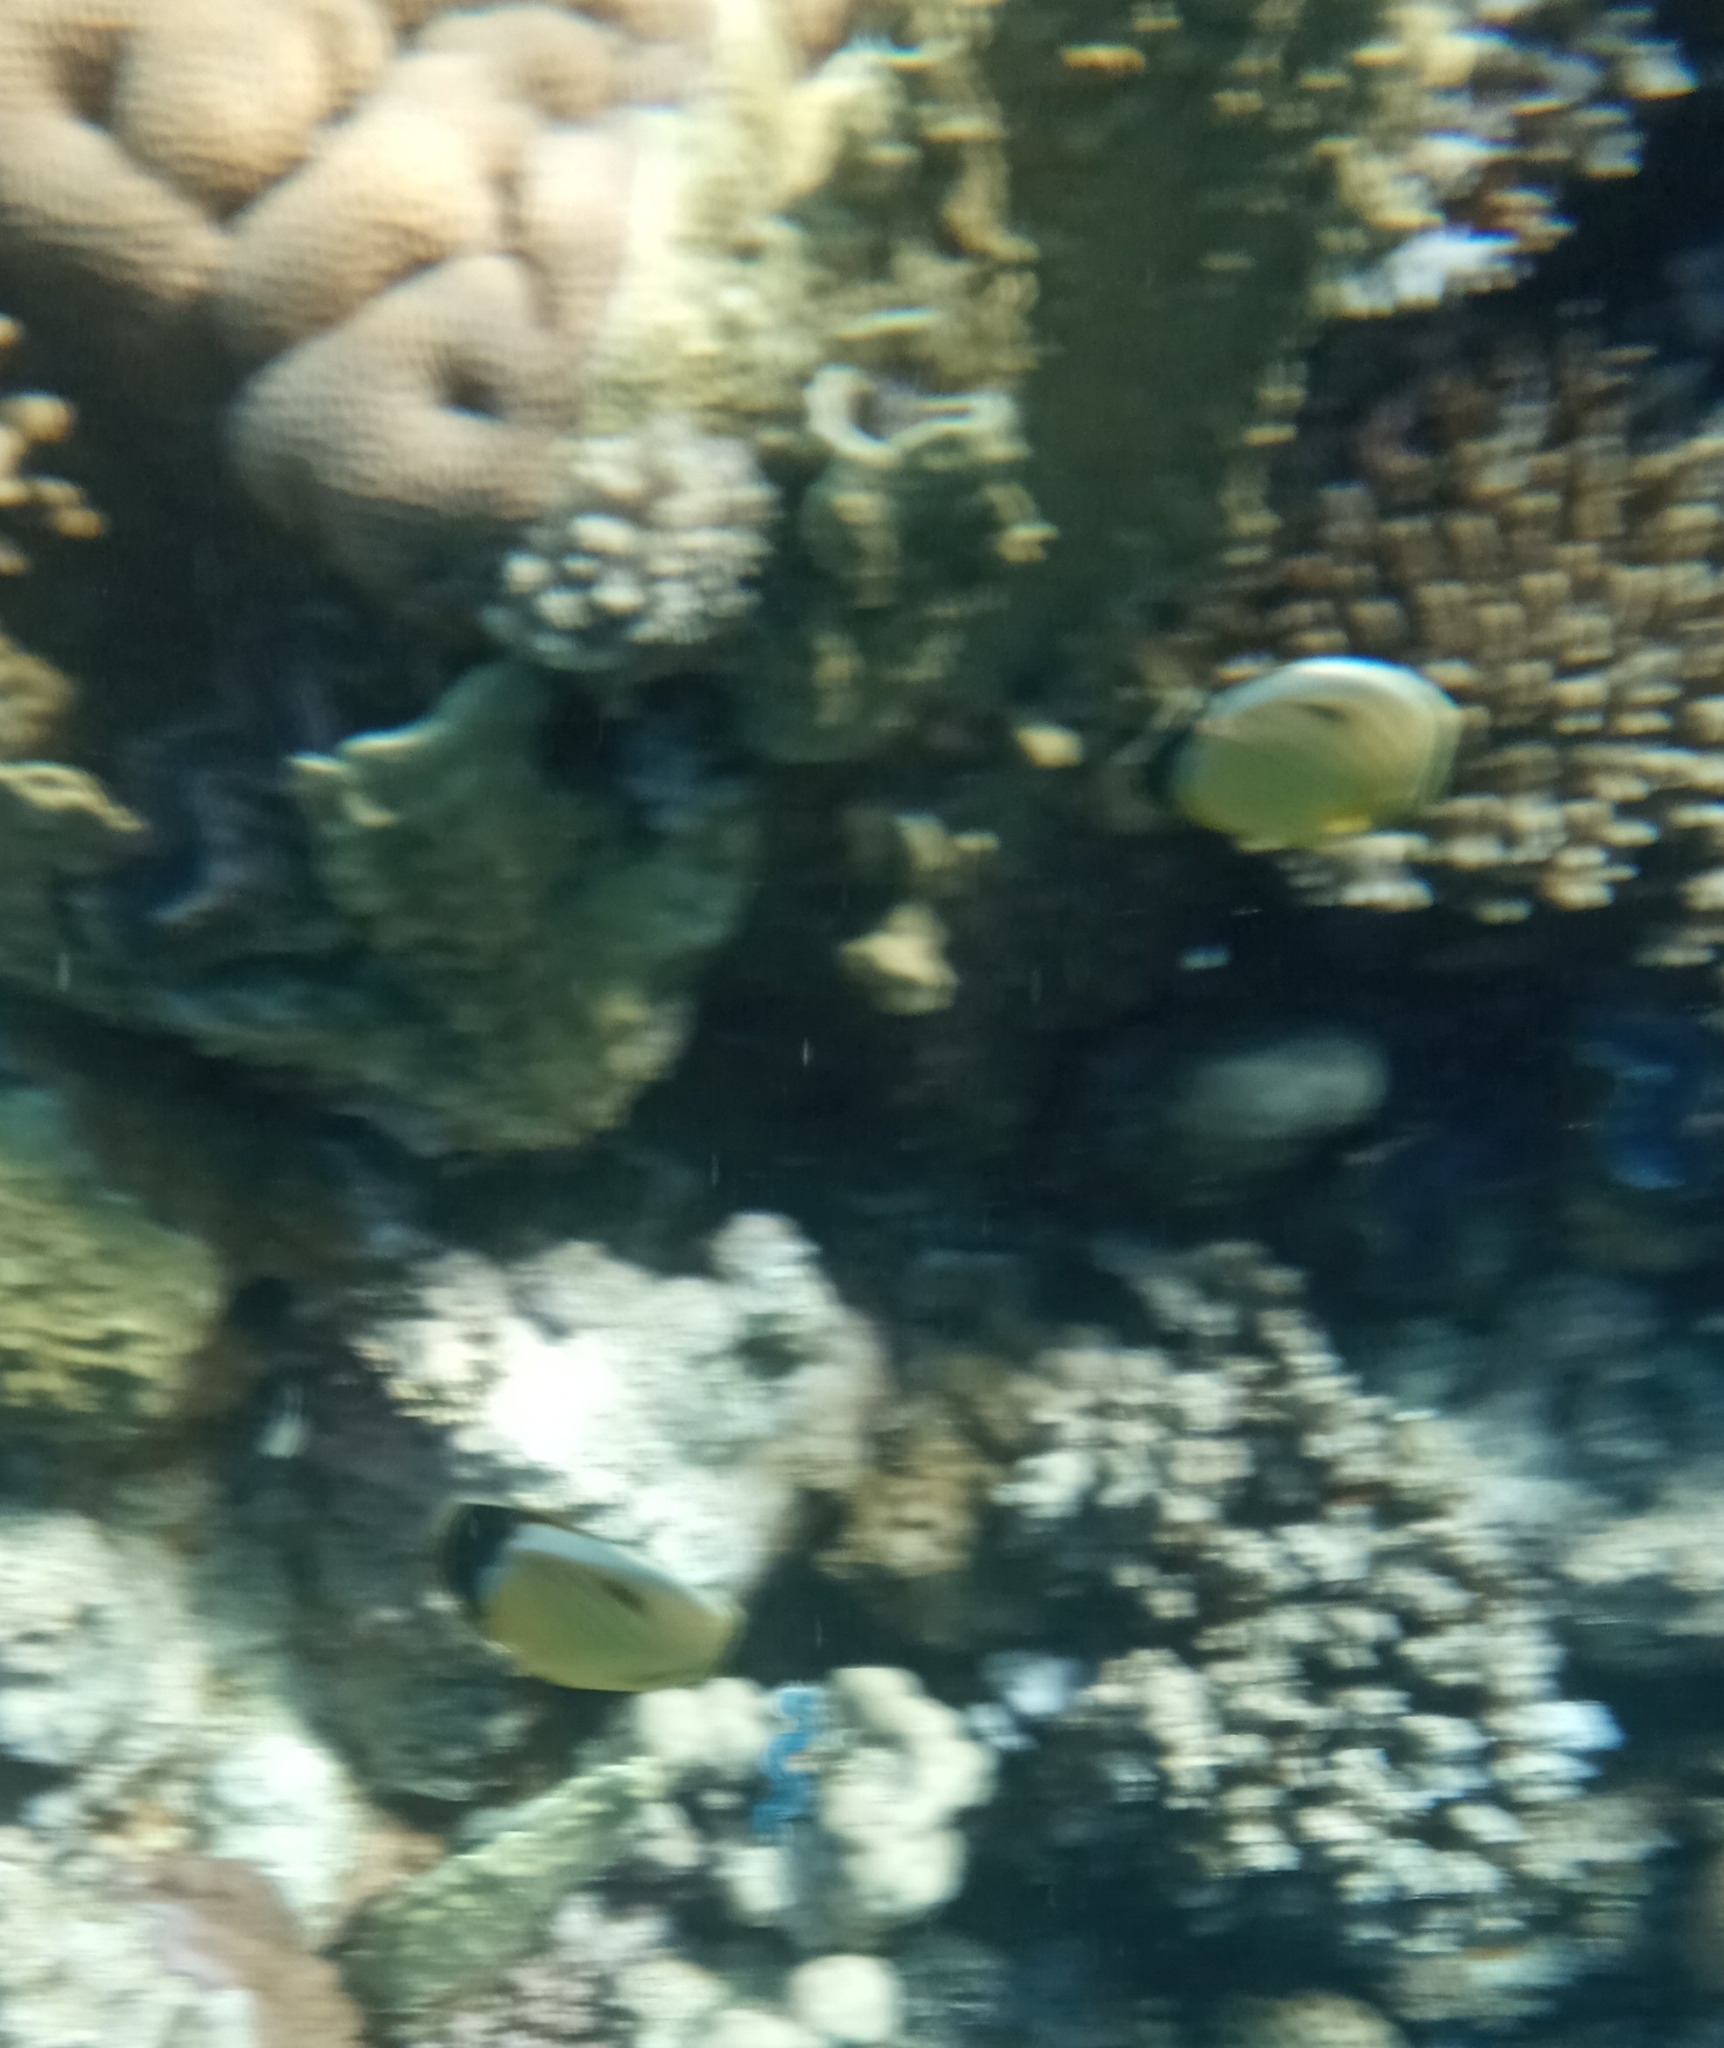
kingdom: Animalia
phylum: Chordata
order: Perciformes
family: Chaetodontidae
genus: Chaetodon
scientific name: Chaetodon austriacus
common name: Exquisite butterflyfish
